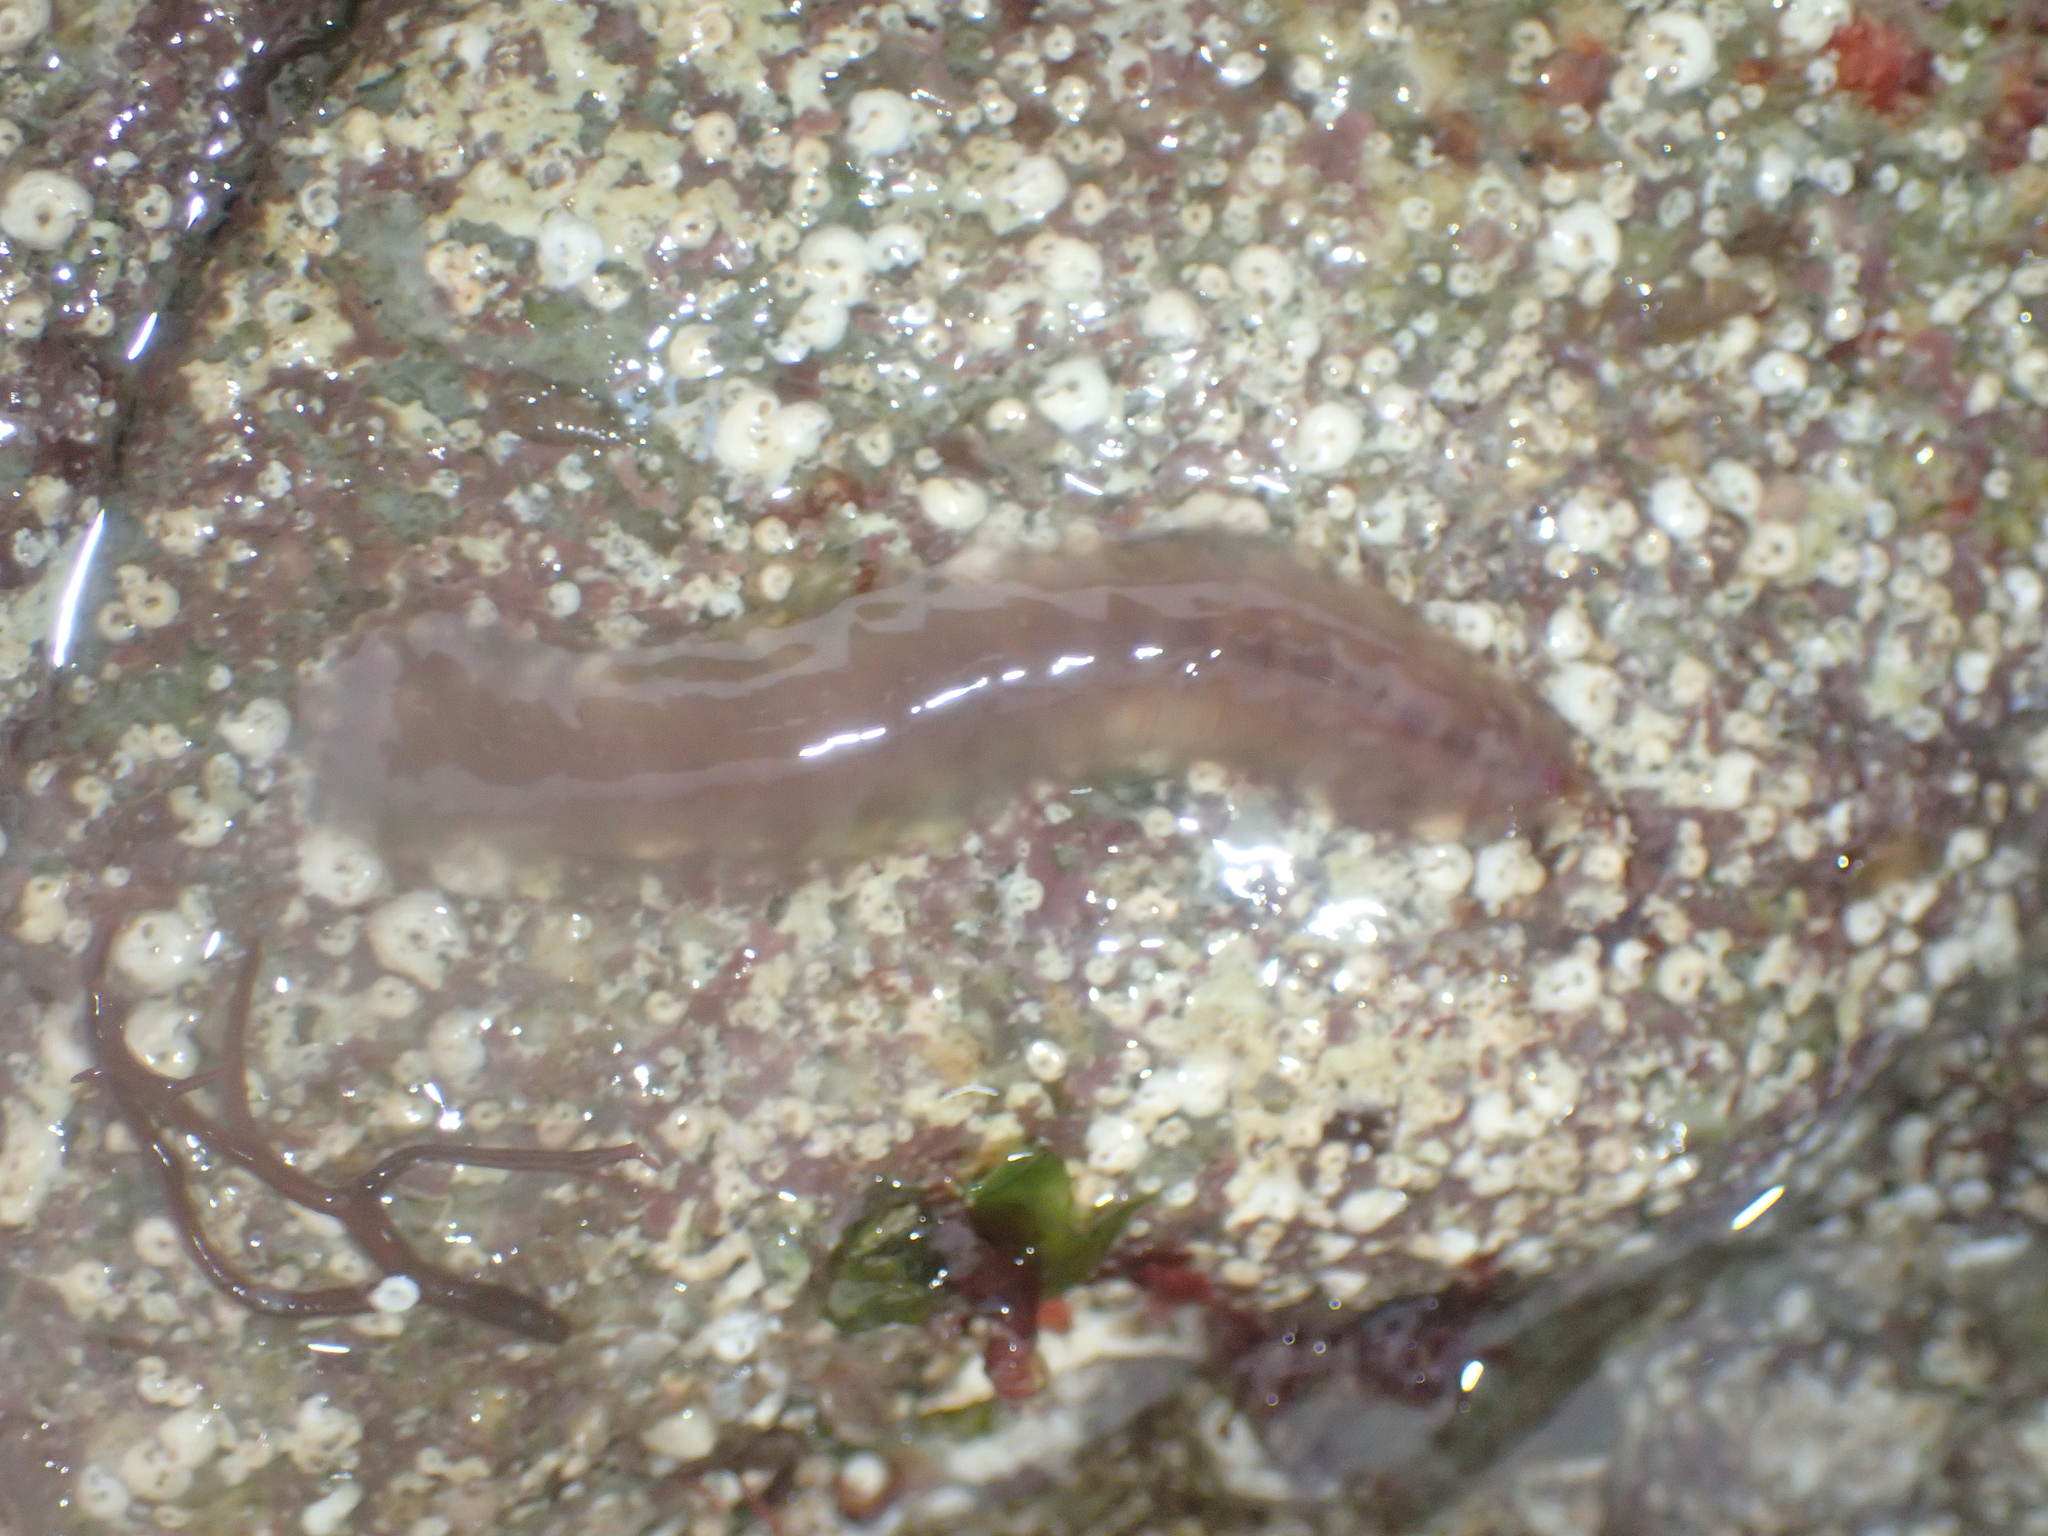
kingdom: Animalia
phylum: Annelida
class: Polychaeta
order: Phyllodocida
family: Polynoidae
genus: Alentia
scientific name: Alentia gelatinosa
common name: Gelatinous scale worm
